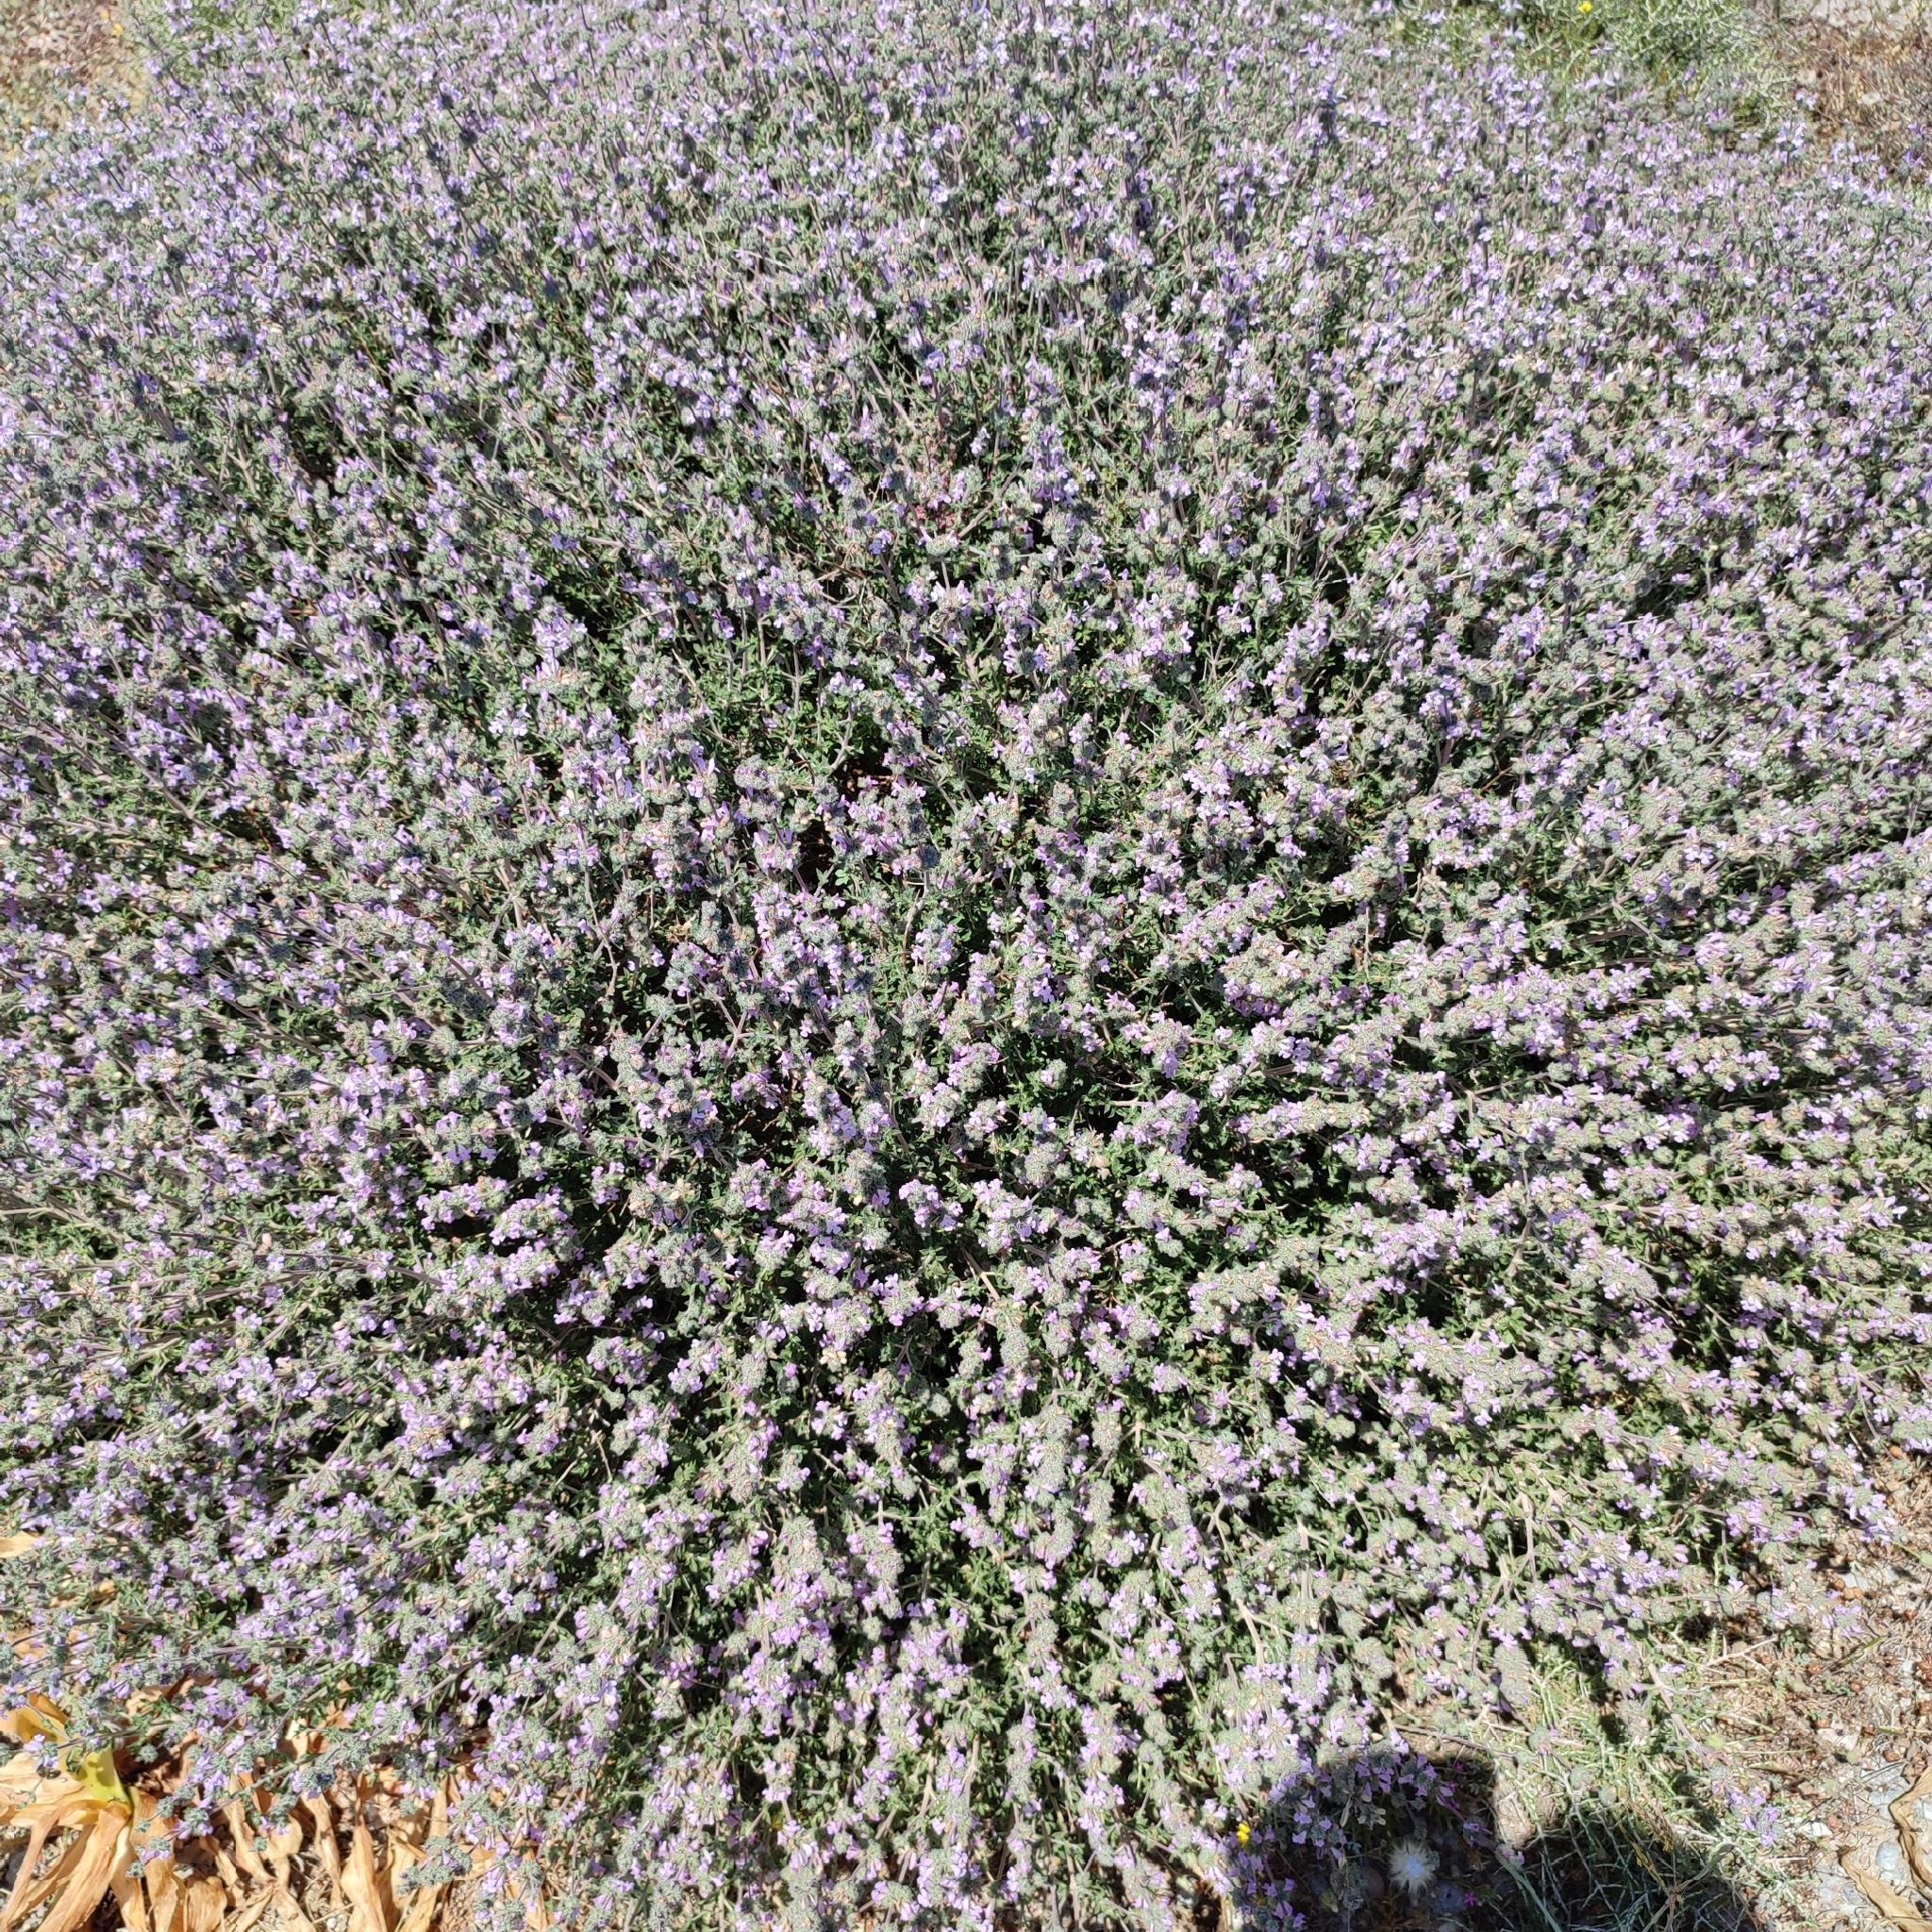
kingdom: Plantae
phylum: Tracheophyta
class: Magnoliopsida
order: Lamiales
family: Lamiaceae
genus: Satureja
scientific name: Satureja thymbra
